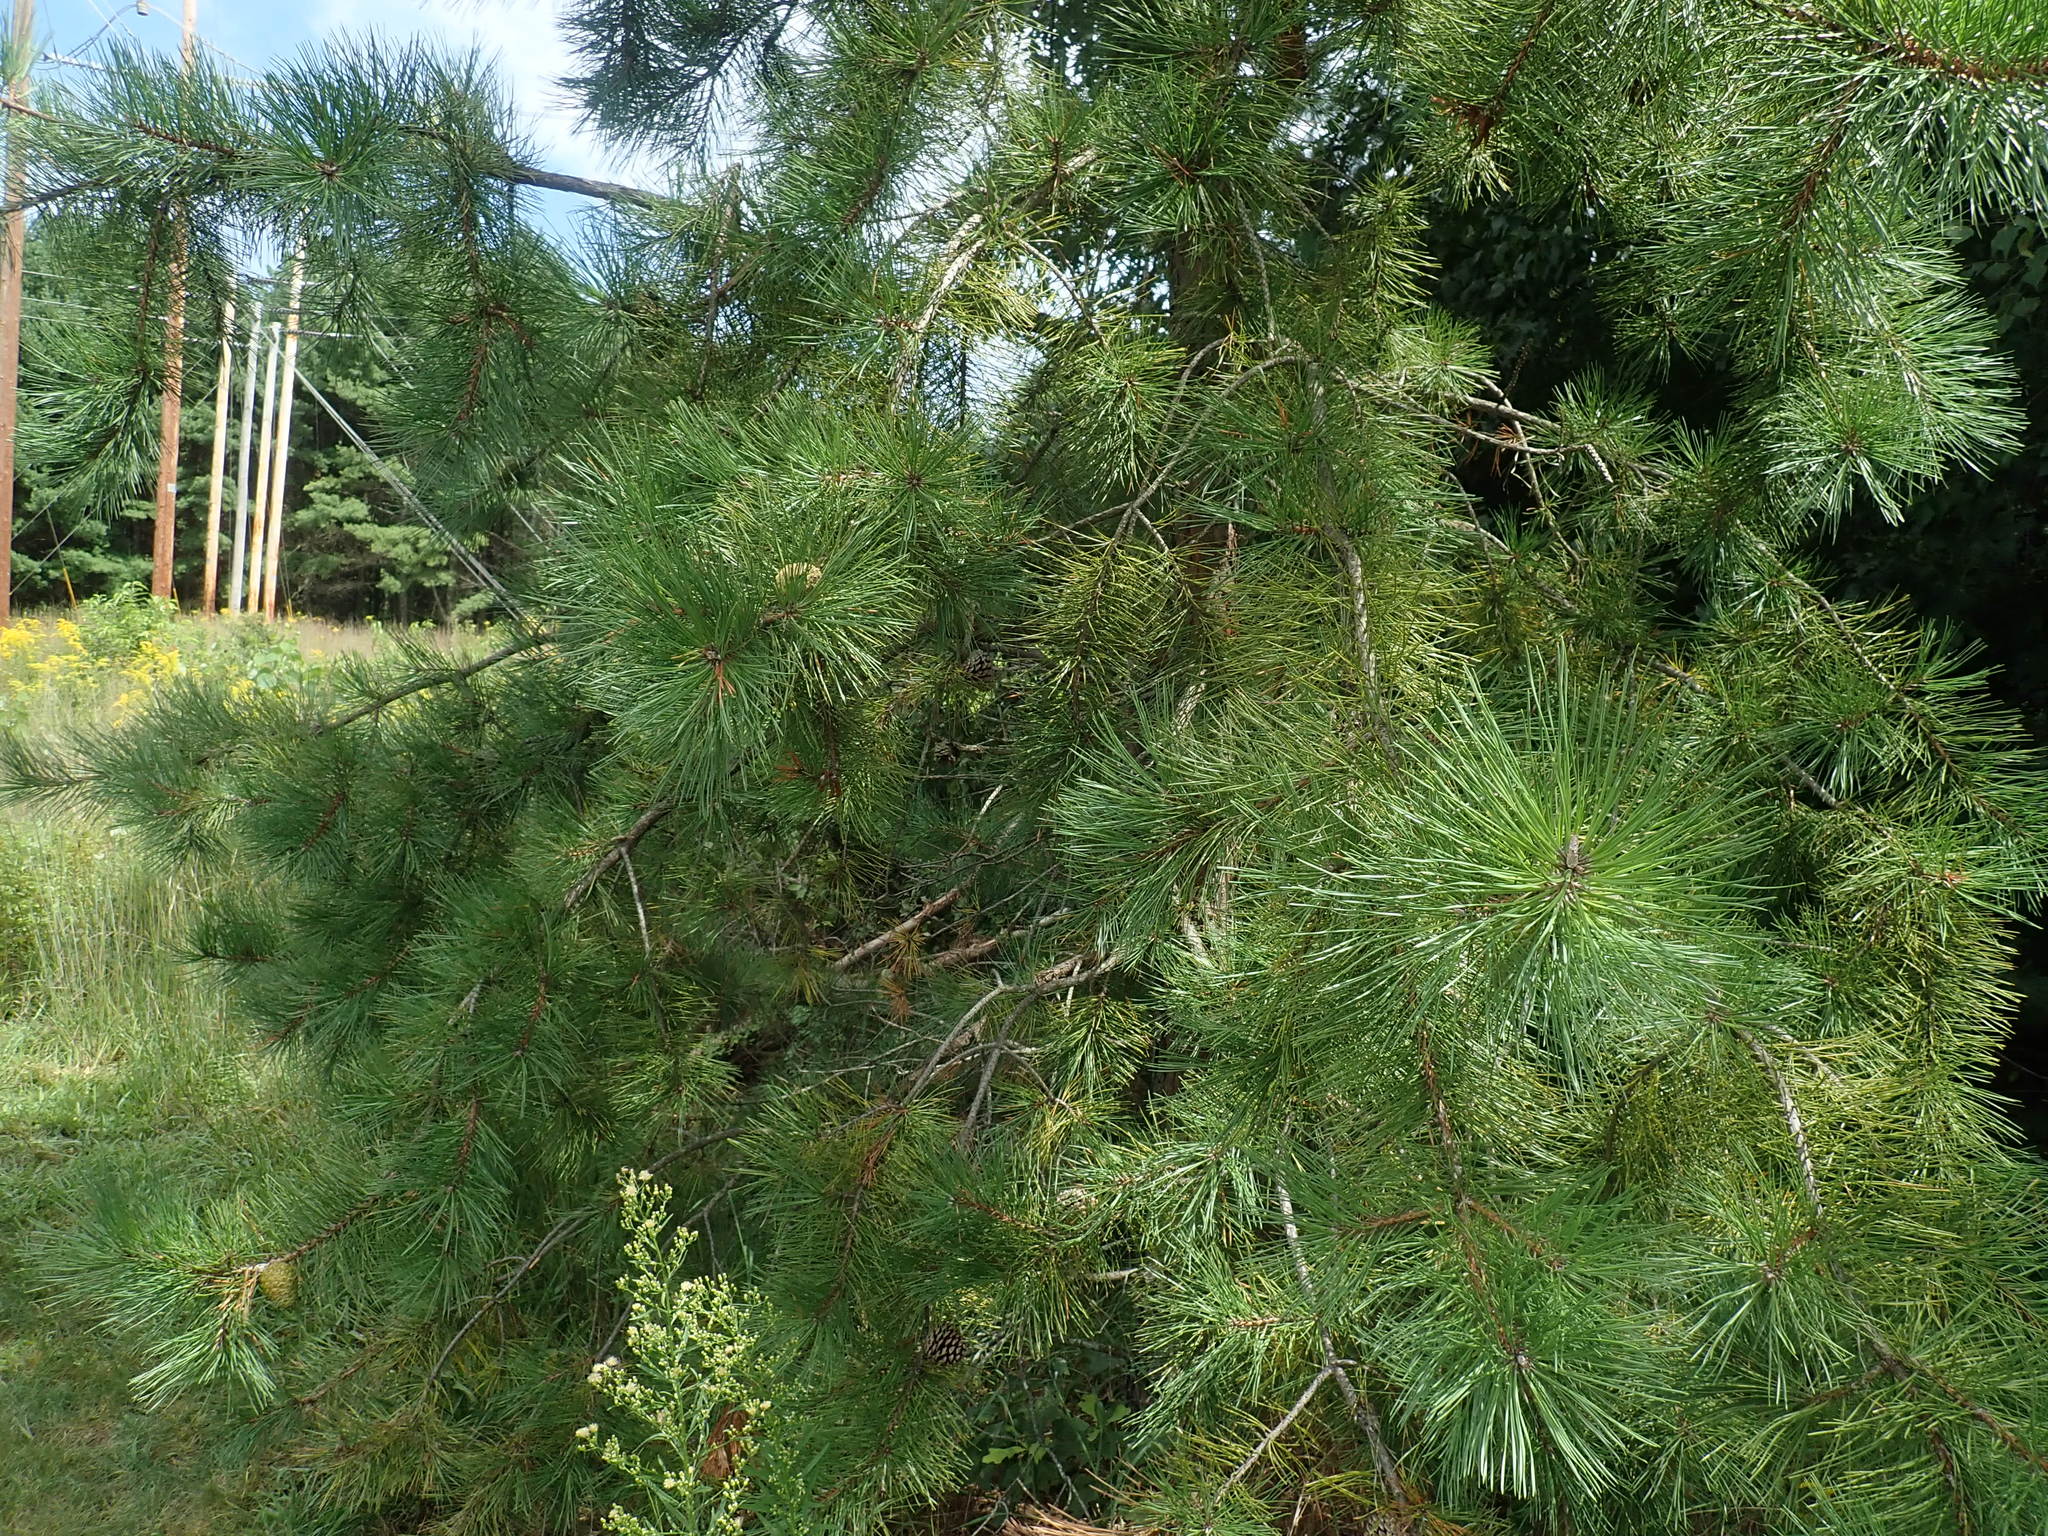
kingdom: Plantae
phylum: Tracheophyta
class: Pinopsida
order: Pinales
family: Pinaceae
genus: Pinus
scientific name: Pinus rigida
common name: Pitch pine
